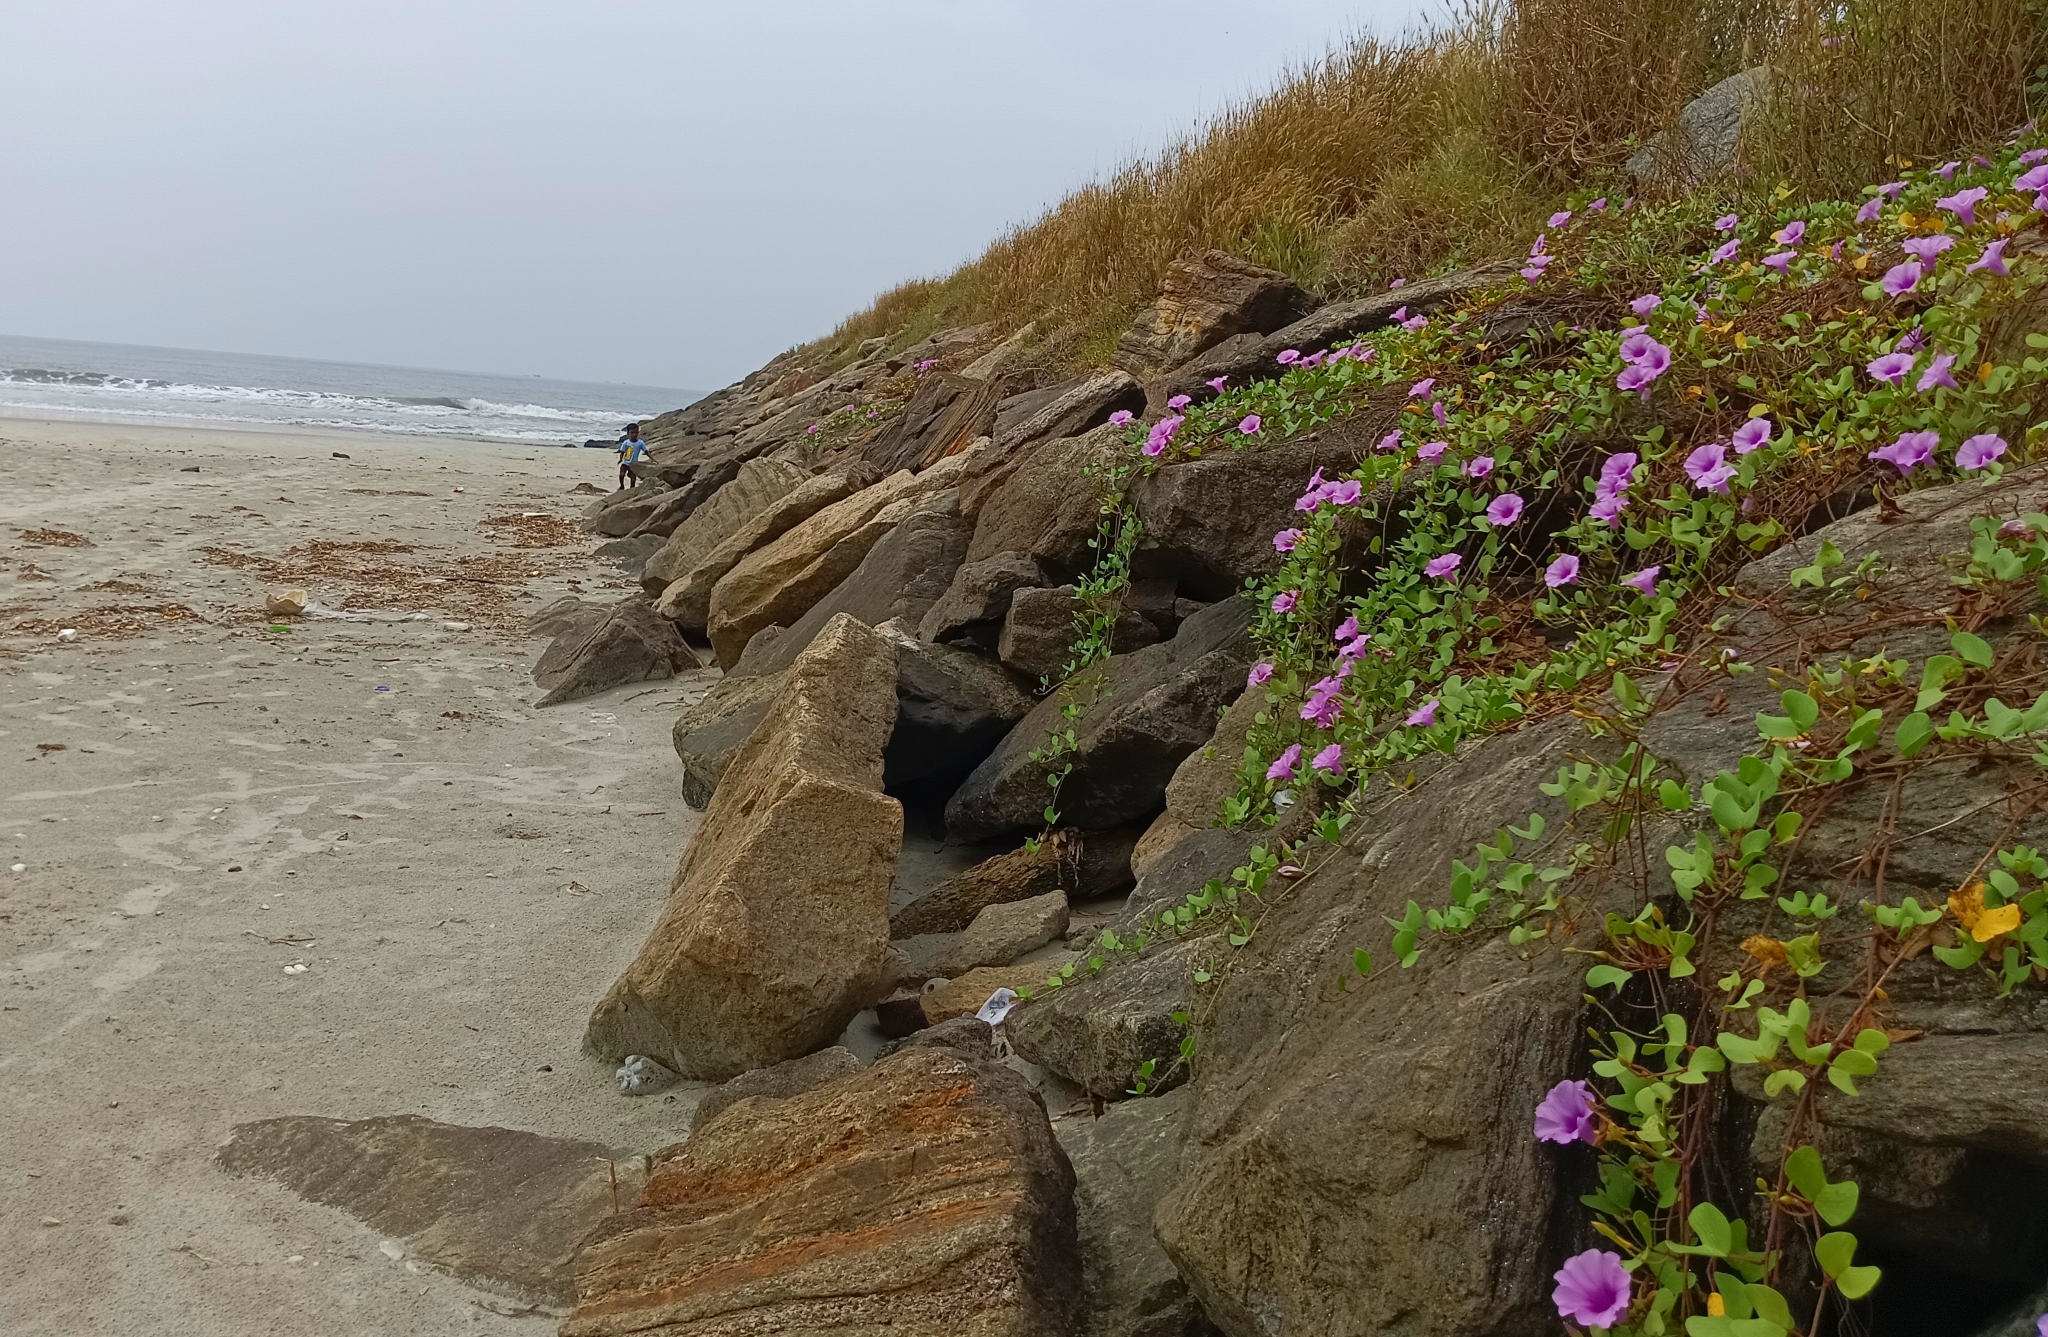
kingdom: Plantae
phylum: Tracheophyta
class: Magnoliopsida
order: Solanales
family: Convolvulaceae
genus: Ipomoea
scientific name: Ipomoea pes-caprae
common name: Beach morning glory
